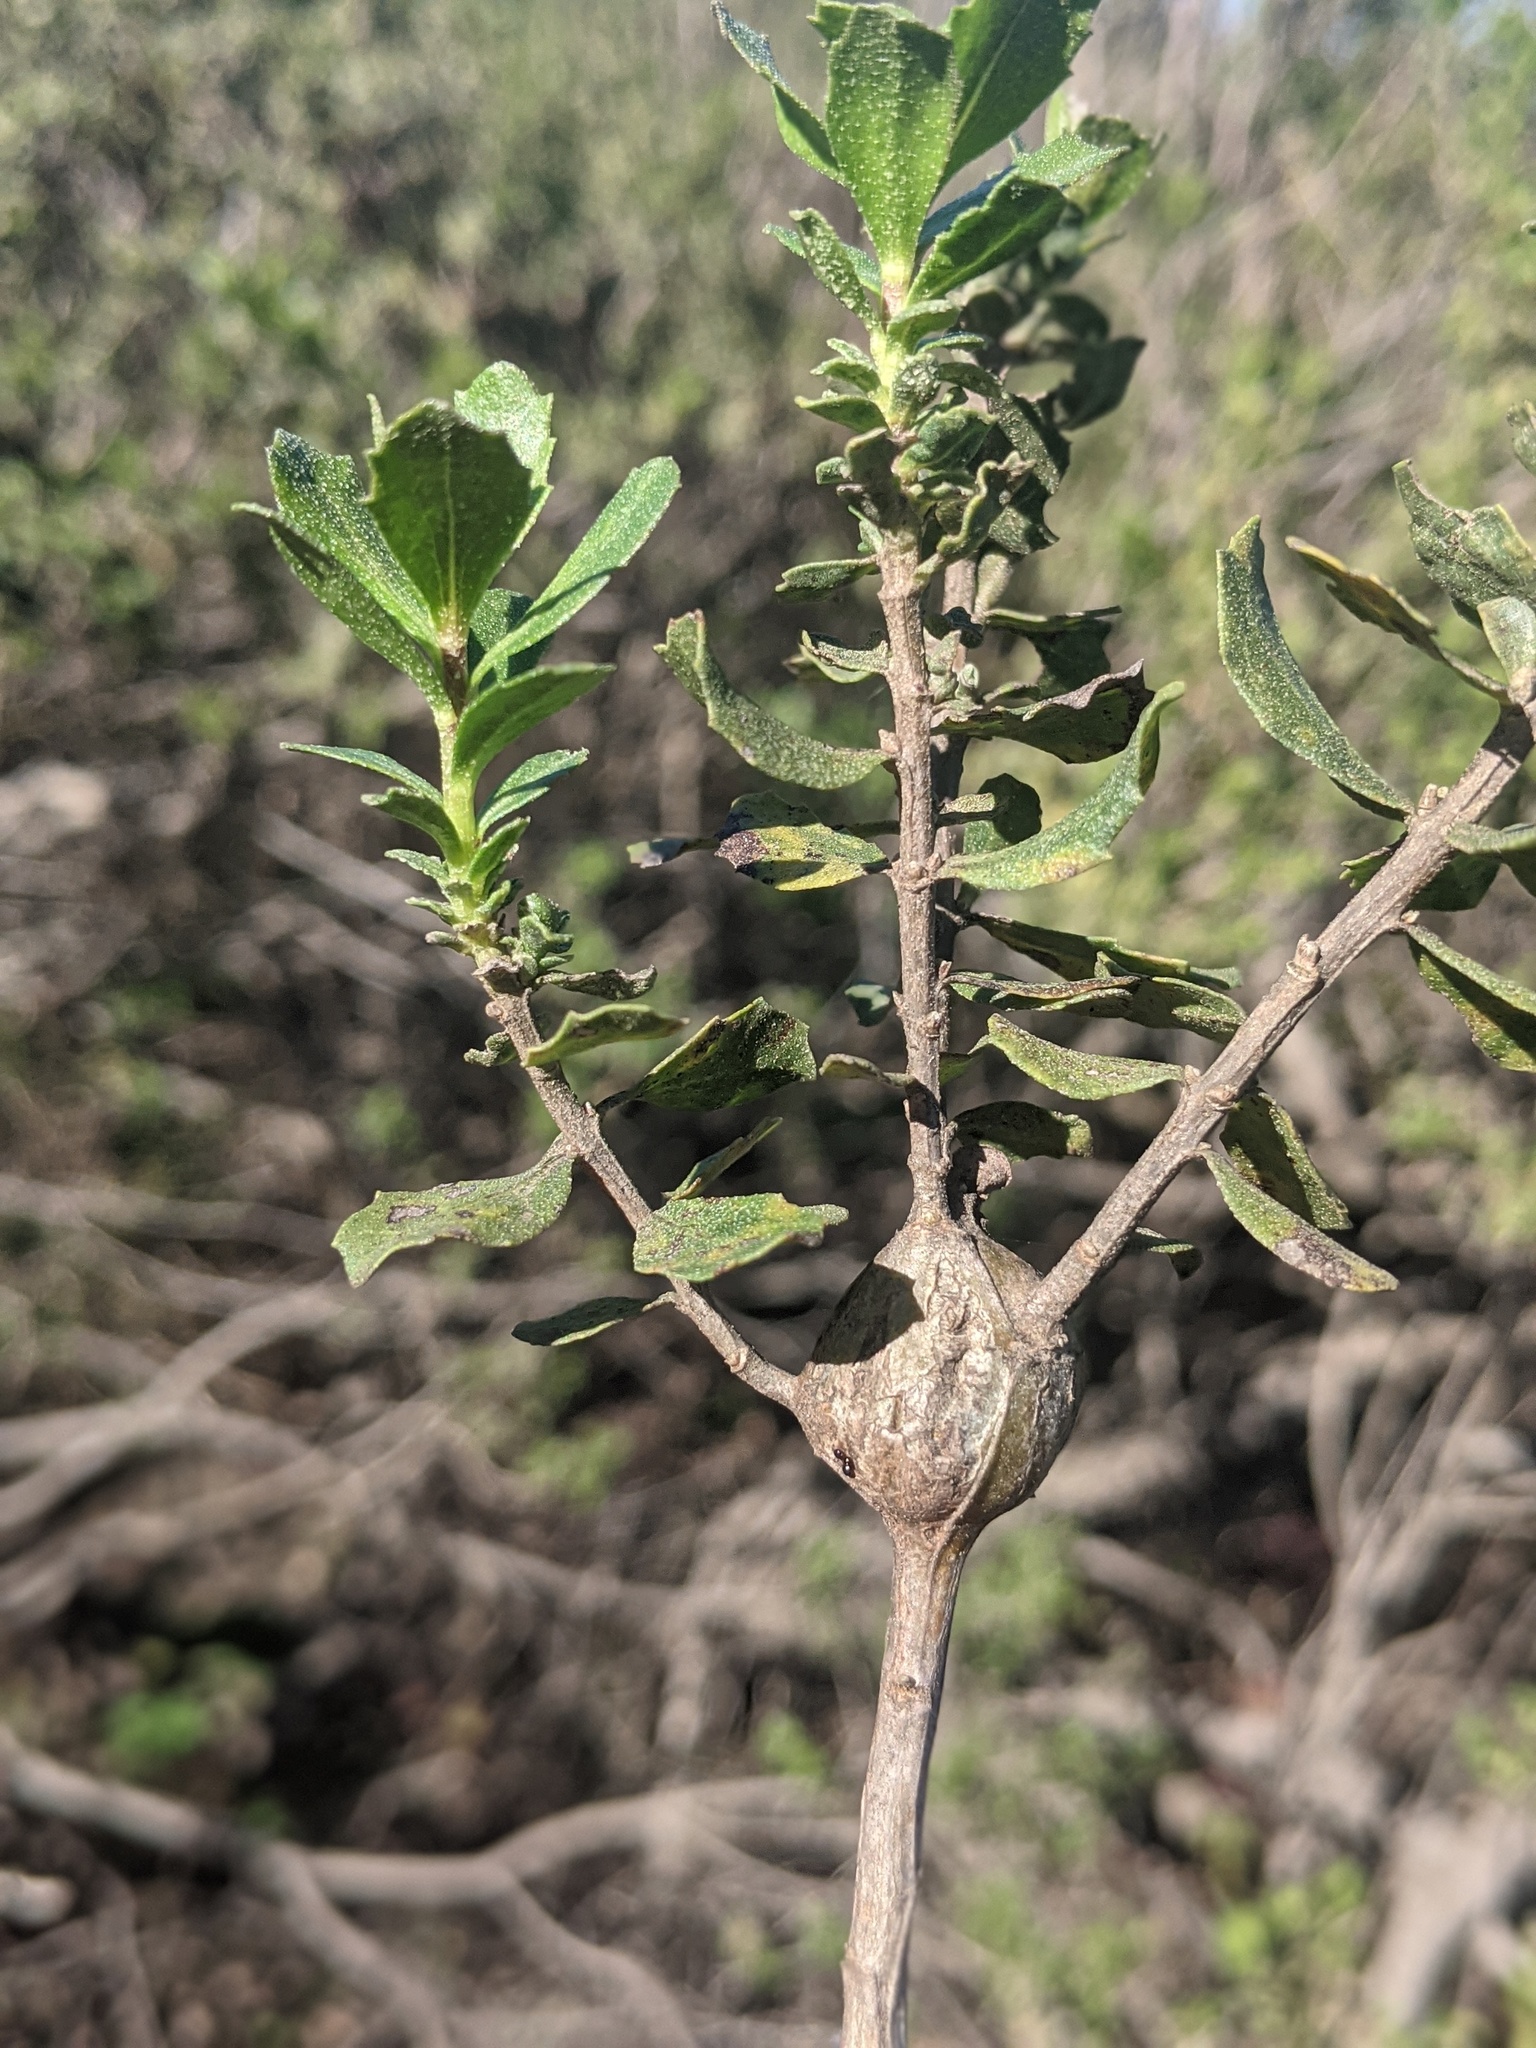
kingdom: Animalia
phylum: Arthropoda
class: Insecta
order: Lepidoptera
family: Gelechiidae
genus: Gnorimoschema
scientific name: Gnorimoschema baccharisella
